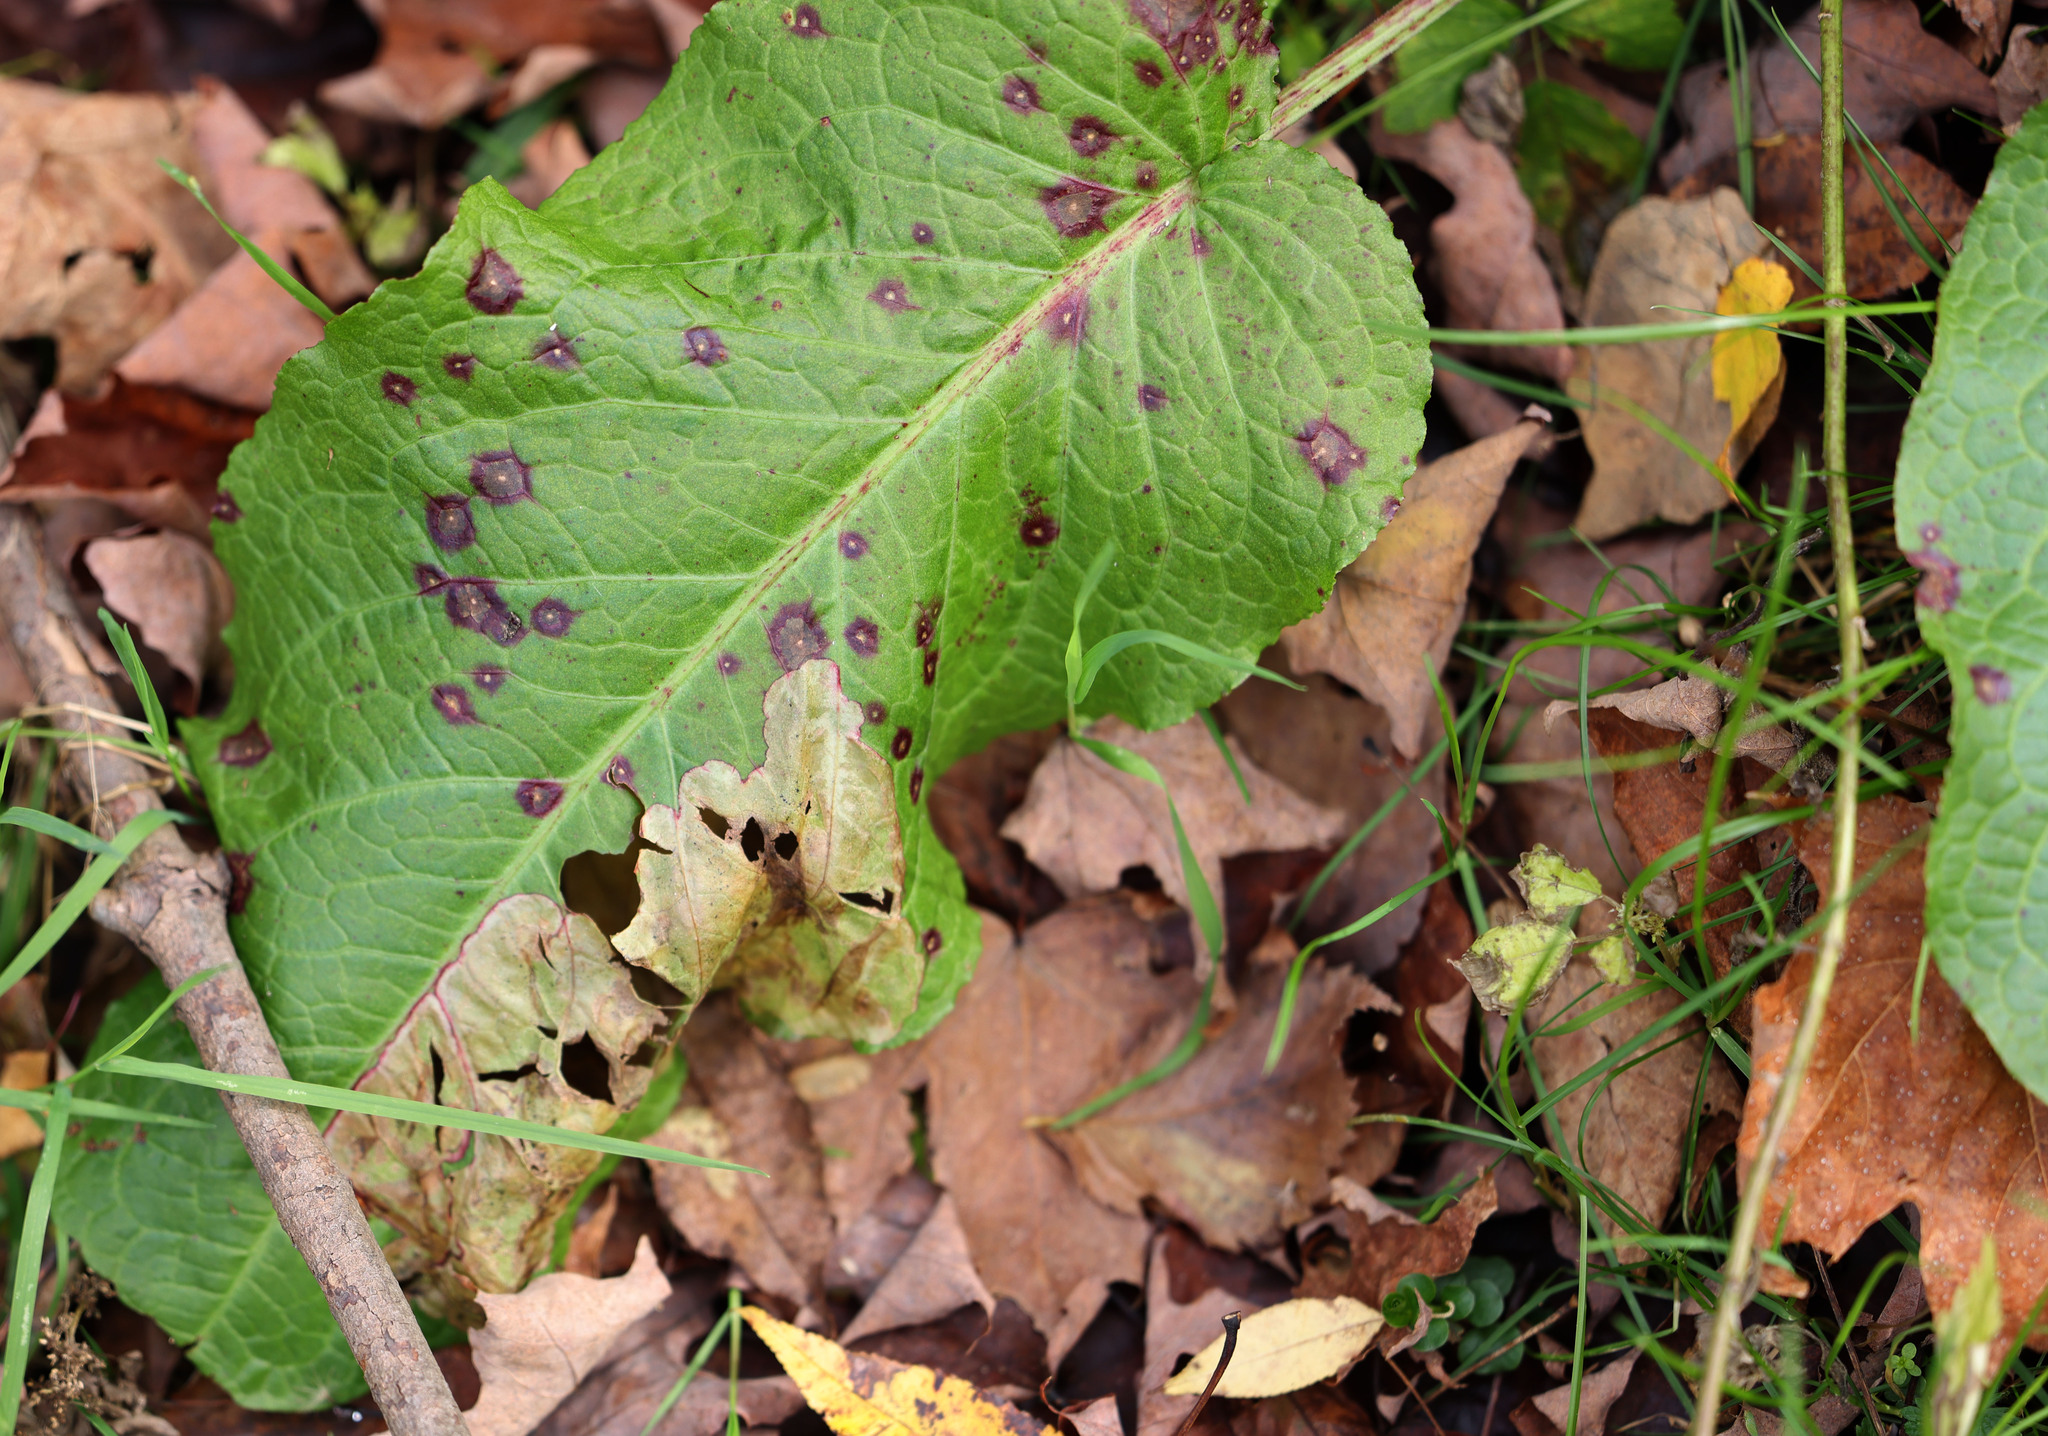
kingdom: Plantae
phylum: Tracheophyta
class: Magnoliopsida
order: Caryophyllales
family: Polygonaceae
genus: Rumex
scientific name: Rumex obtusifolius
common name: Bitter dock
